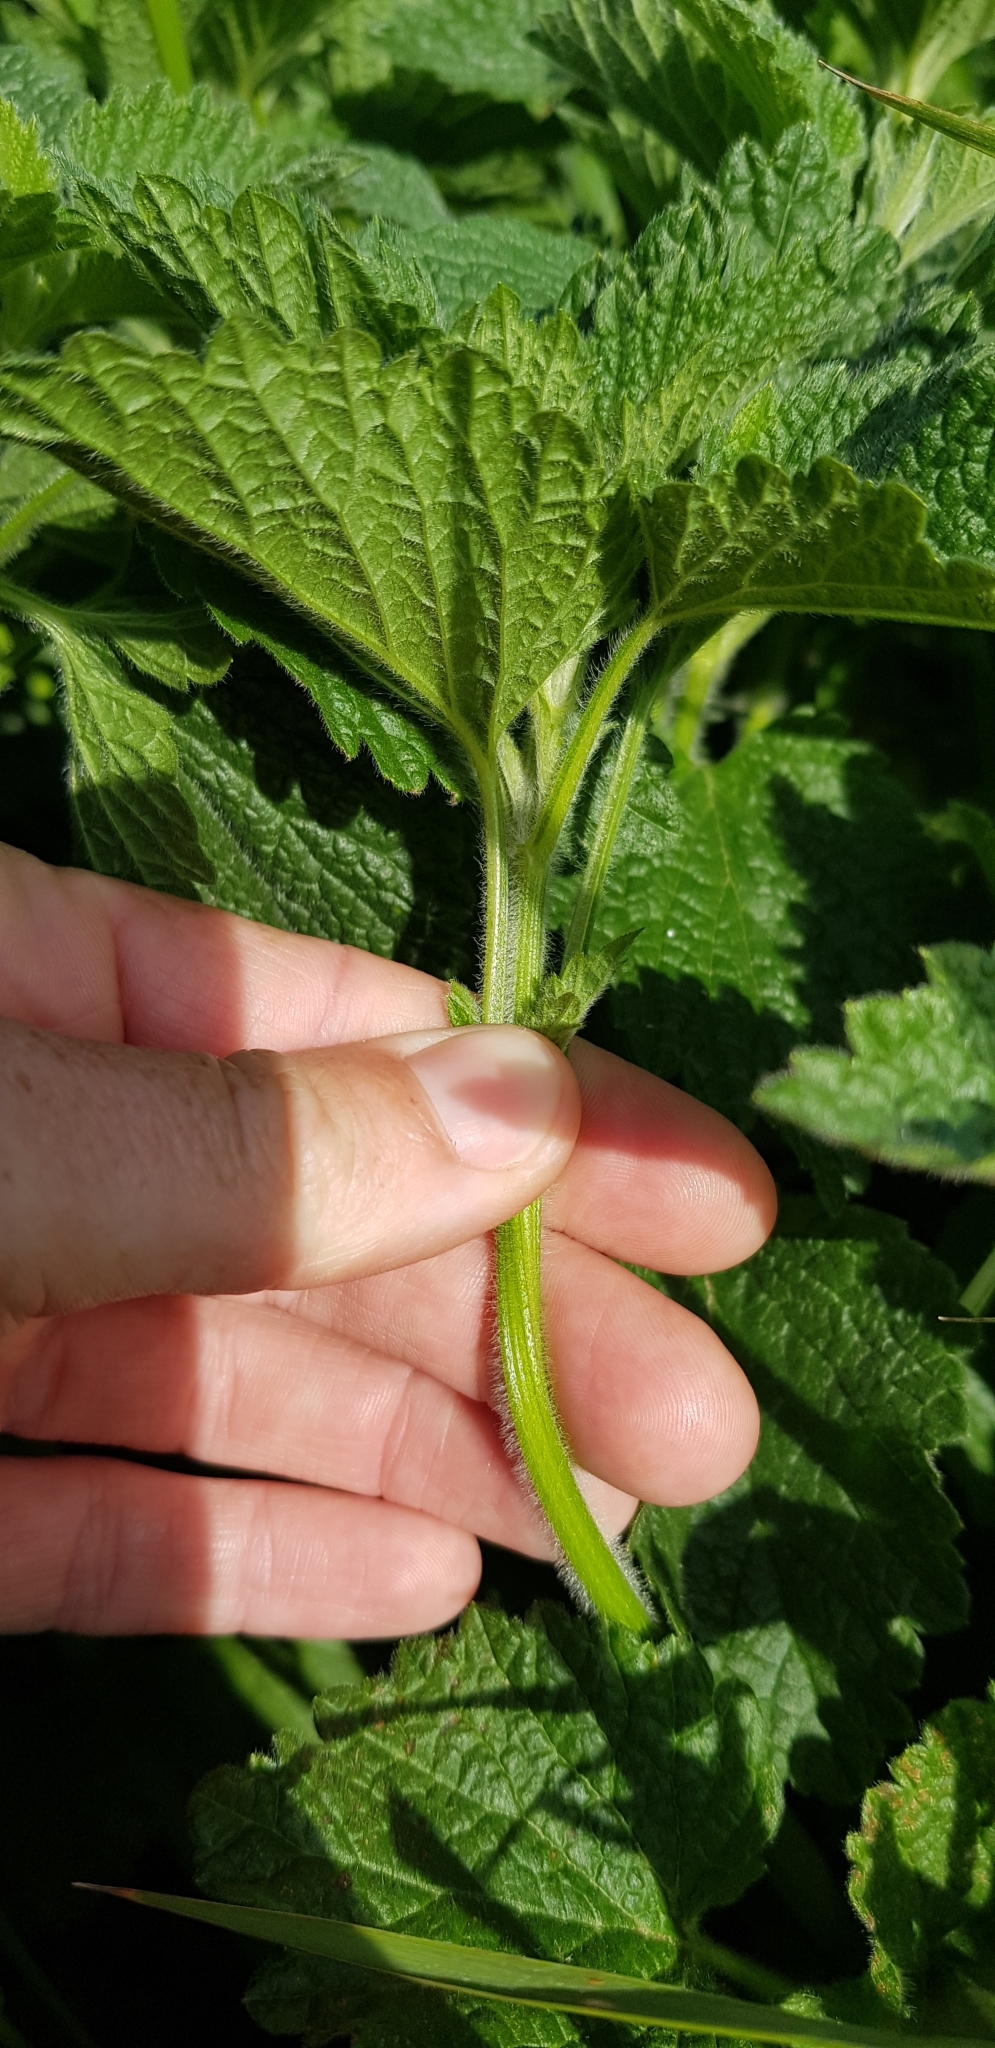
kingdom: Plantae
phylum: Tracheophyta
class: Magnoliopsida
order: Lamiales
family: Lamiaceae
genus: Ballota
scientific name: Ballota nigra
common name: Black horehound
